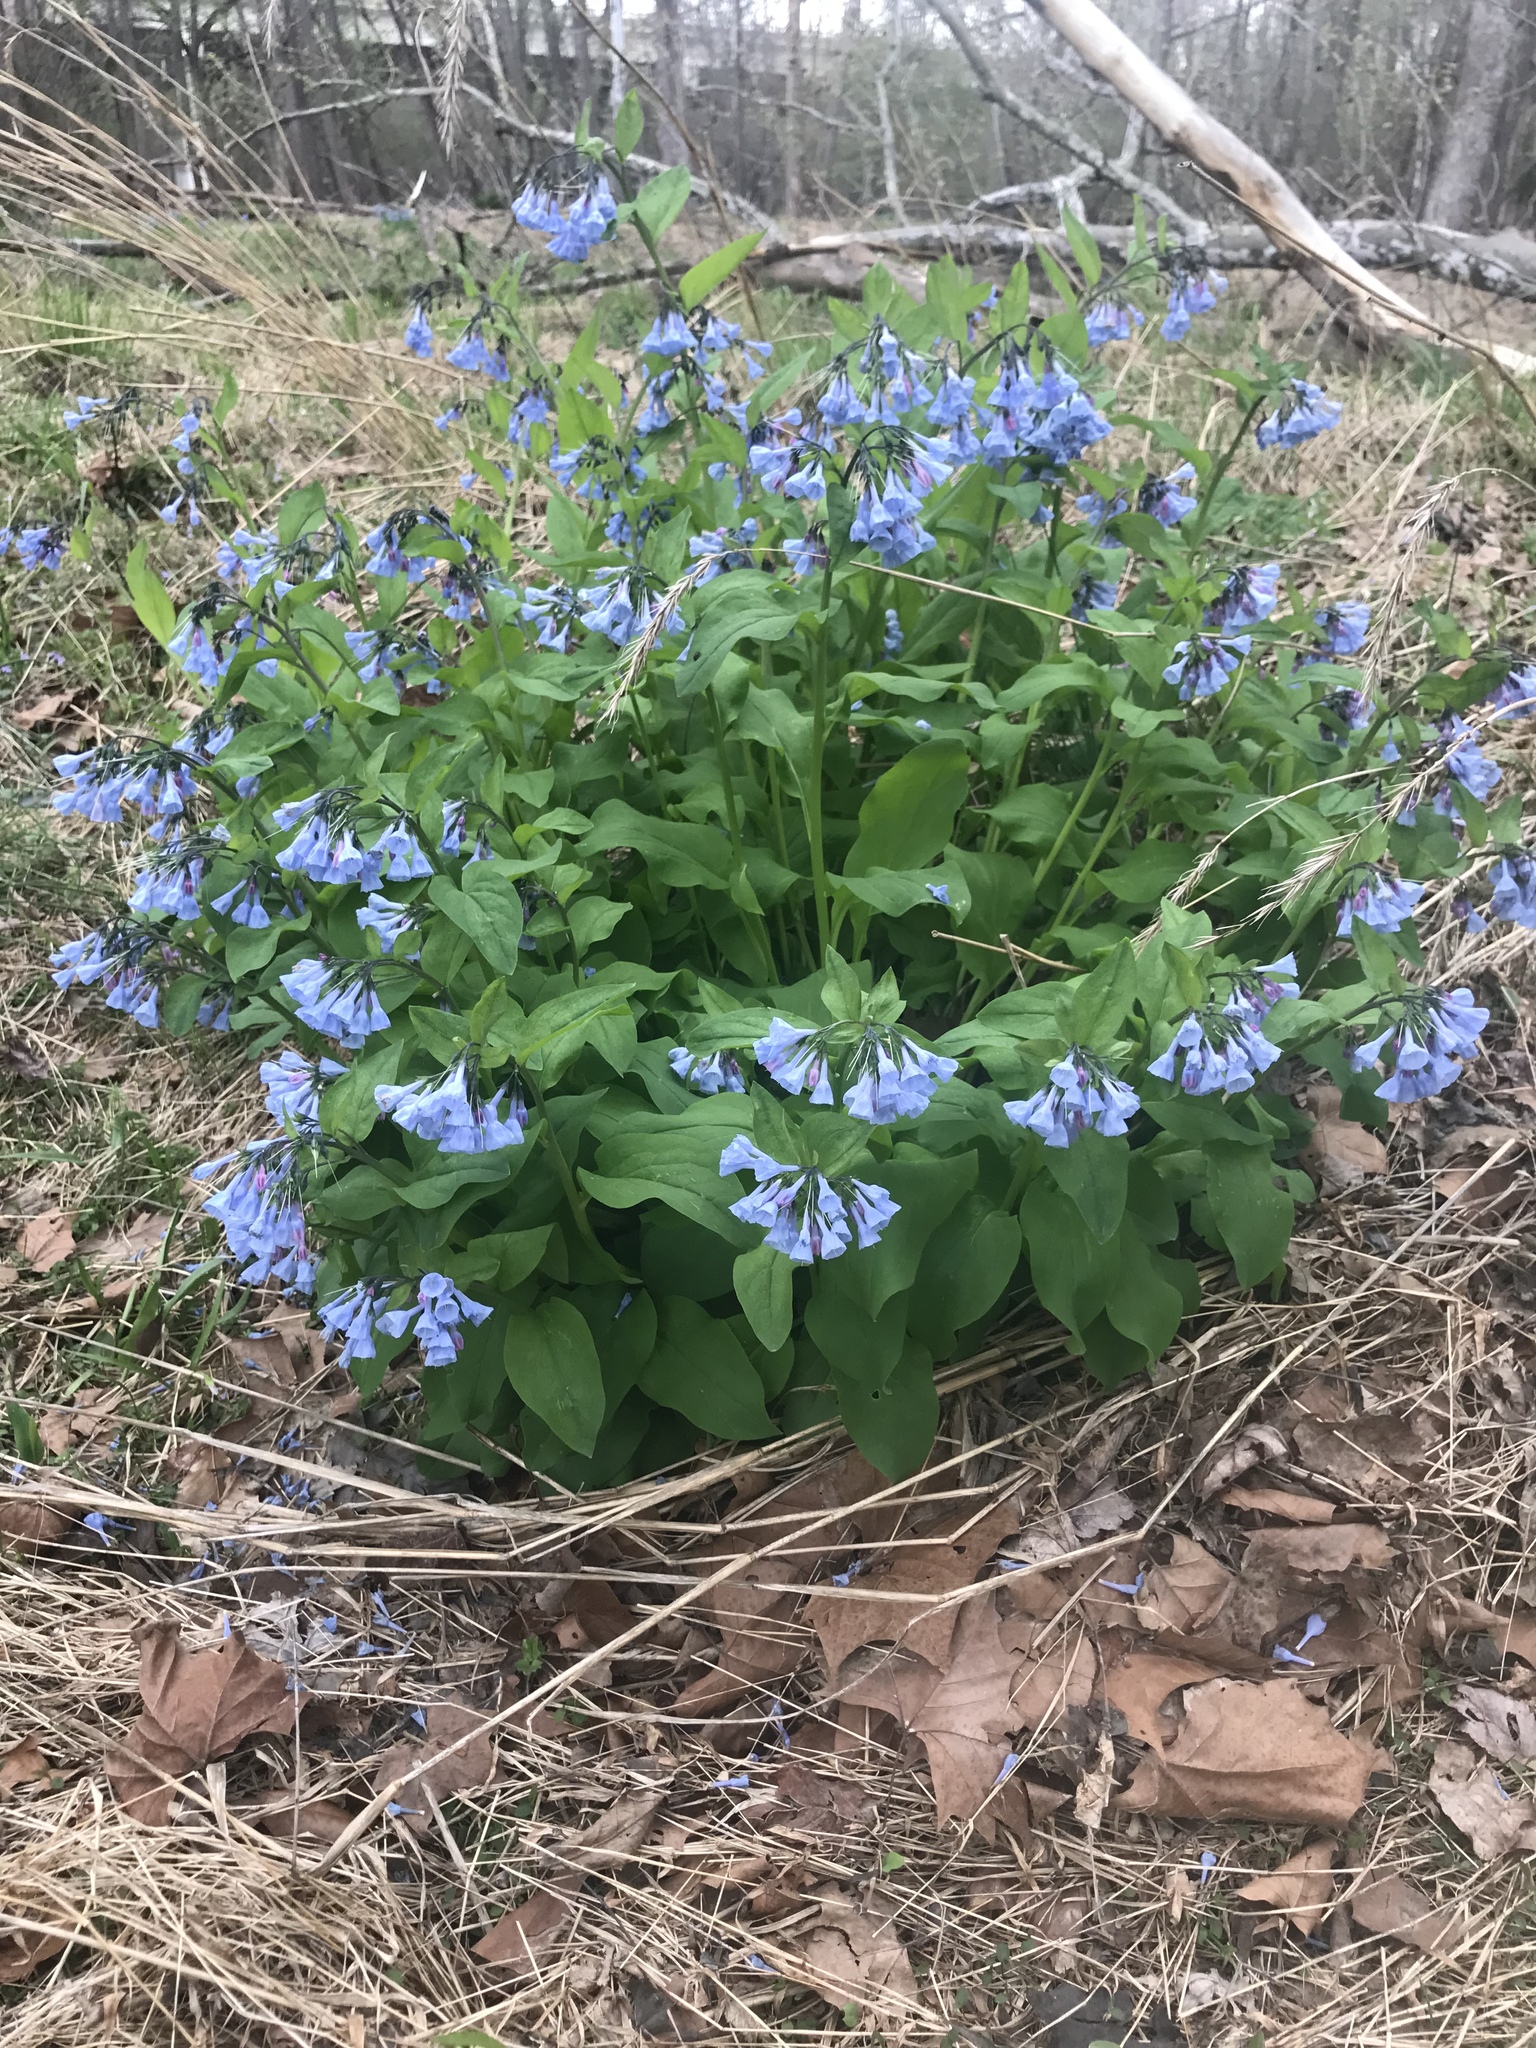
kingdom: Plantae
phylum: Tracheophyta
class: Magnoliopsida
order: Boraginales
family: Boraginaceae
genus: Mertensia
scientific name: Mertensia virginica
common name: Virginia bluebells
